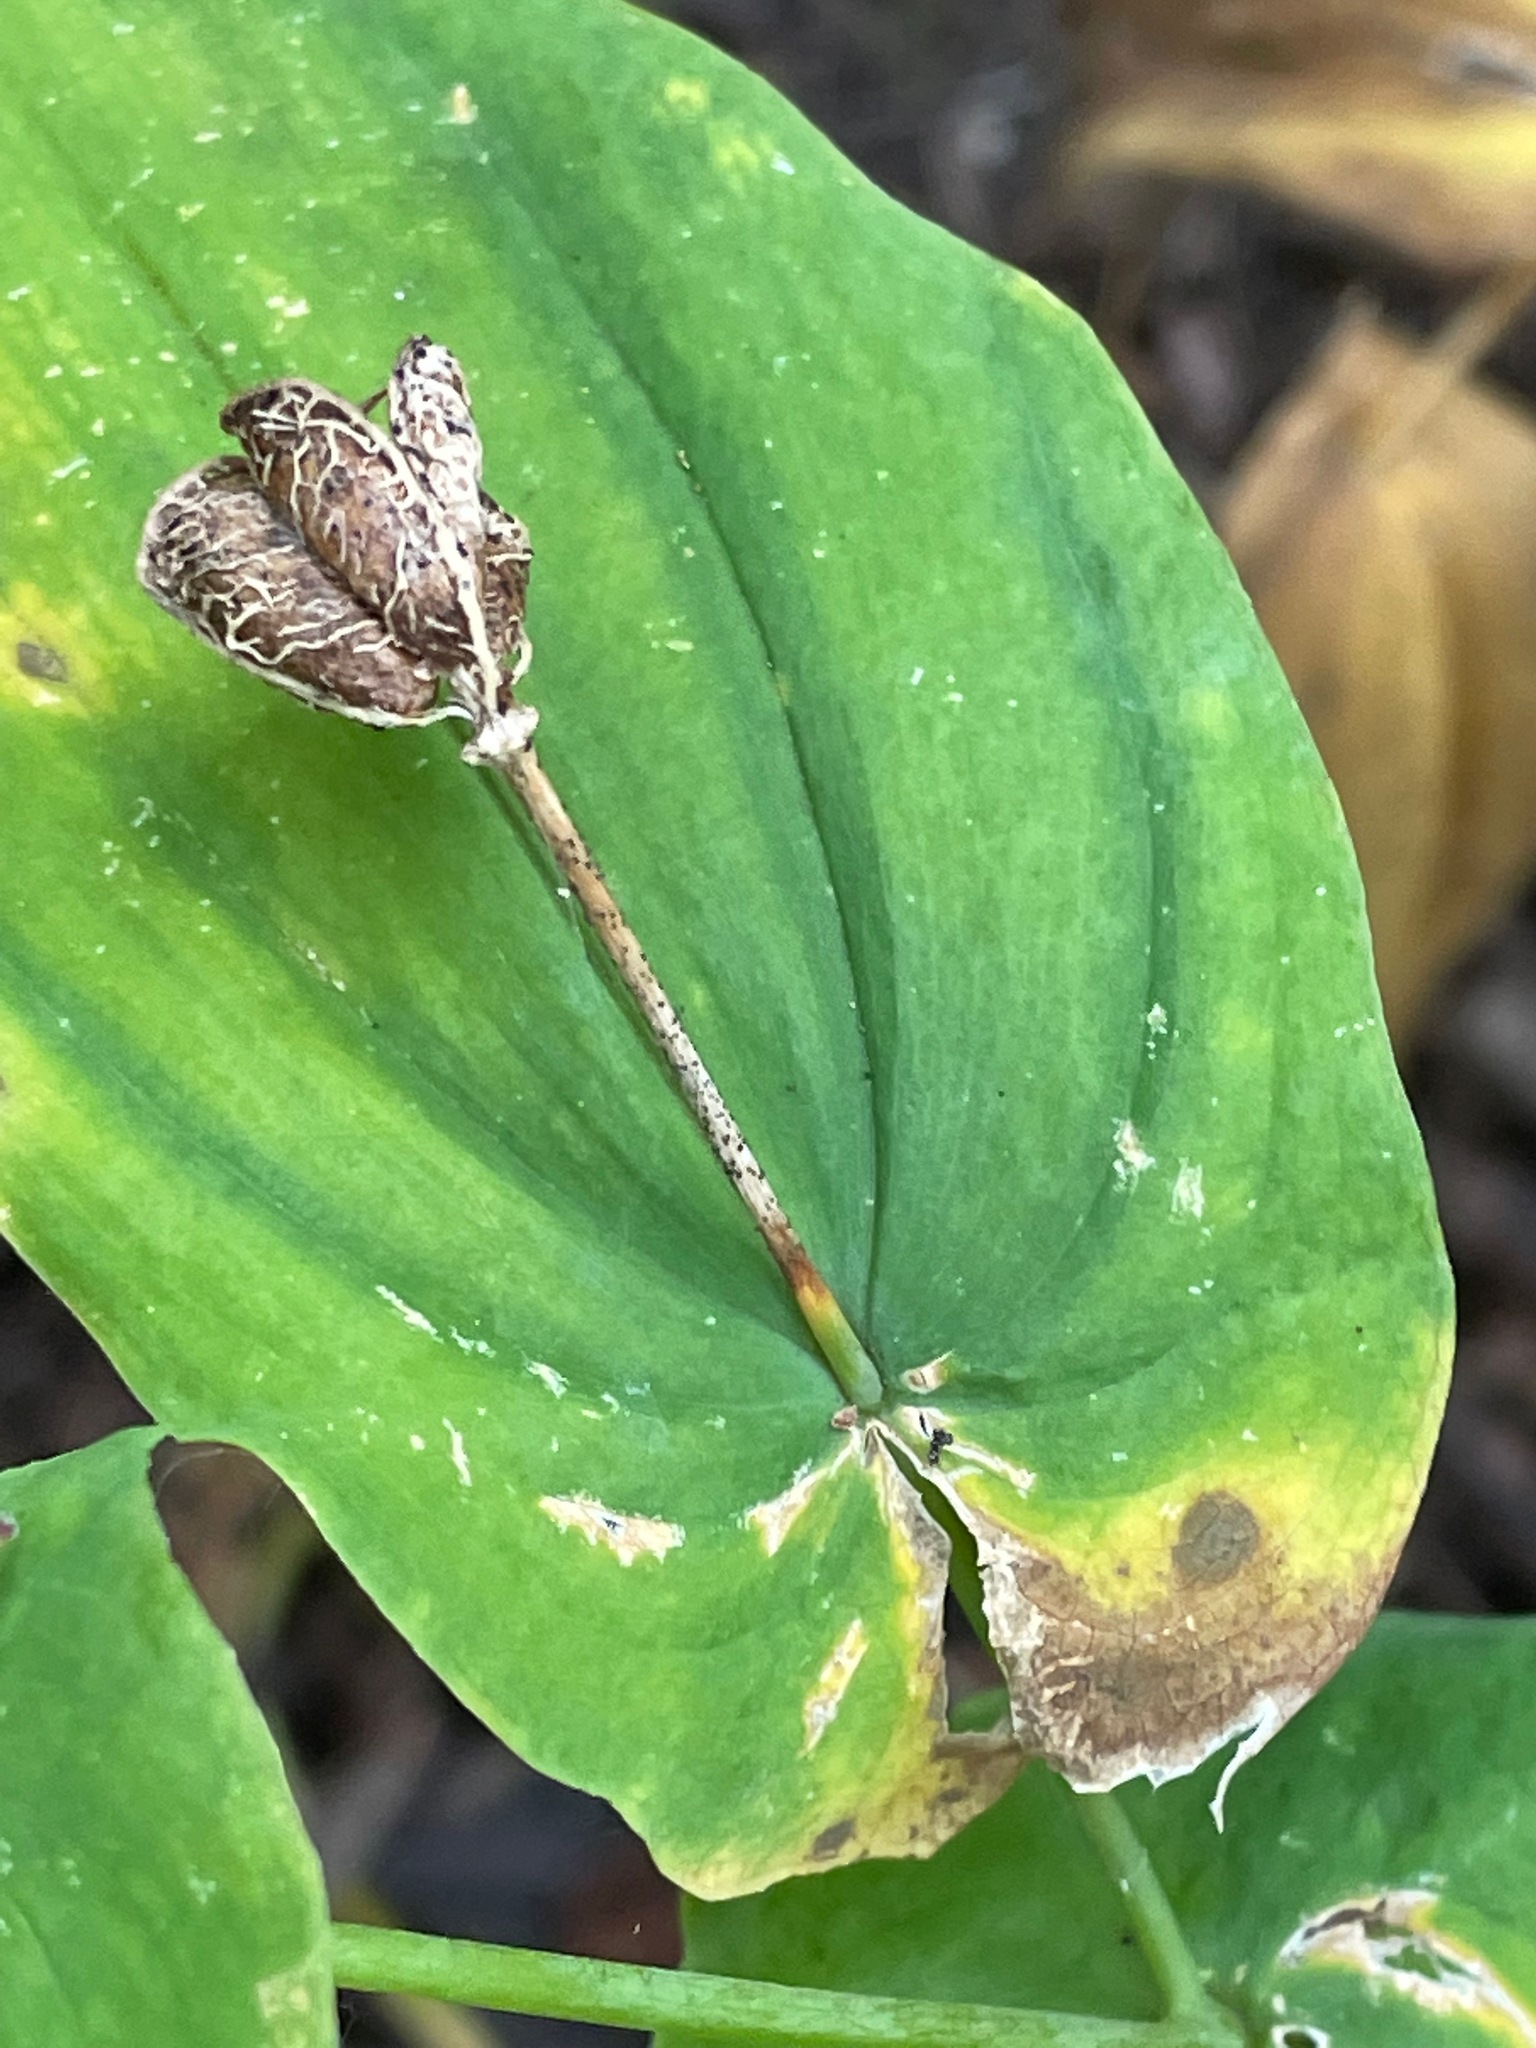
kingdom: Plantae
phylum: Tracheophyta
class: Liliopsida
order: Liliales
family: Colchicaceae
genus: Uvularia
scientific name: Uvularia grandiflora
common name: Bellwort
